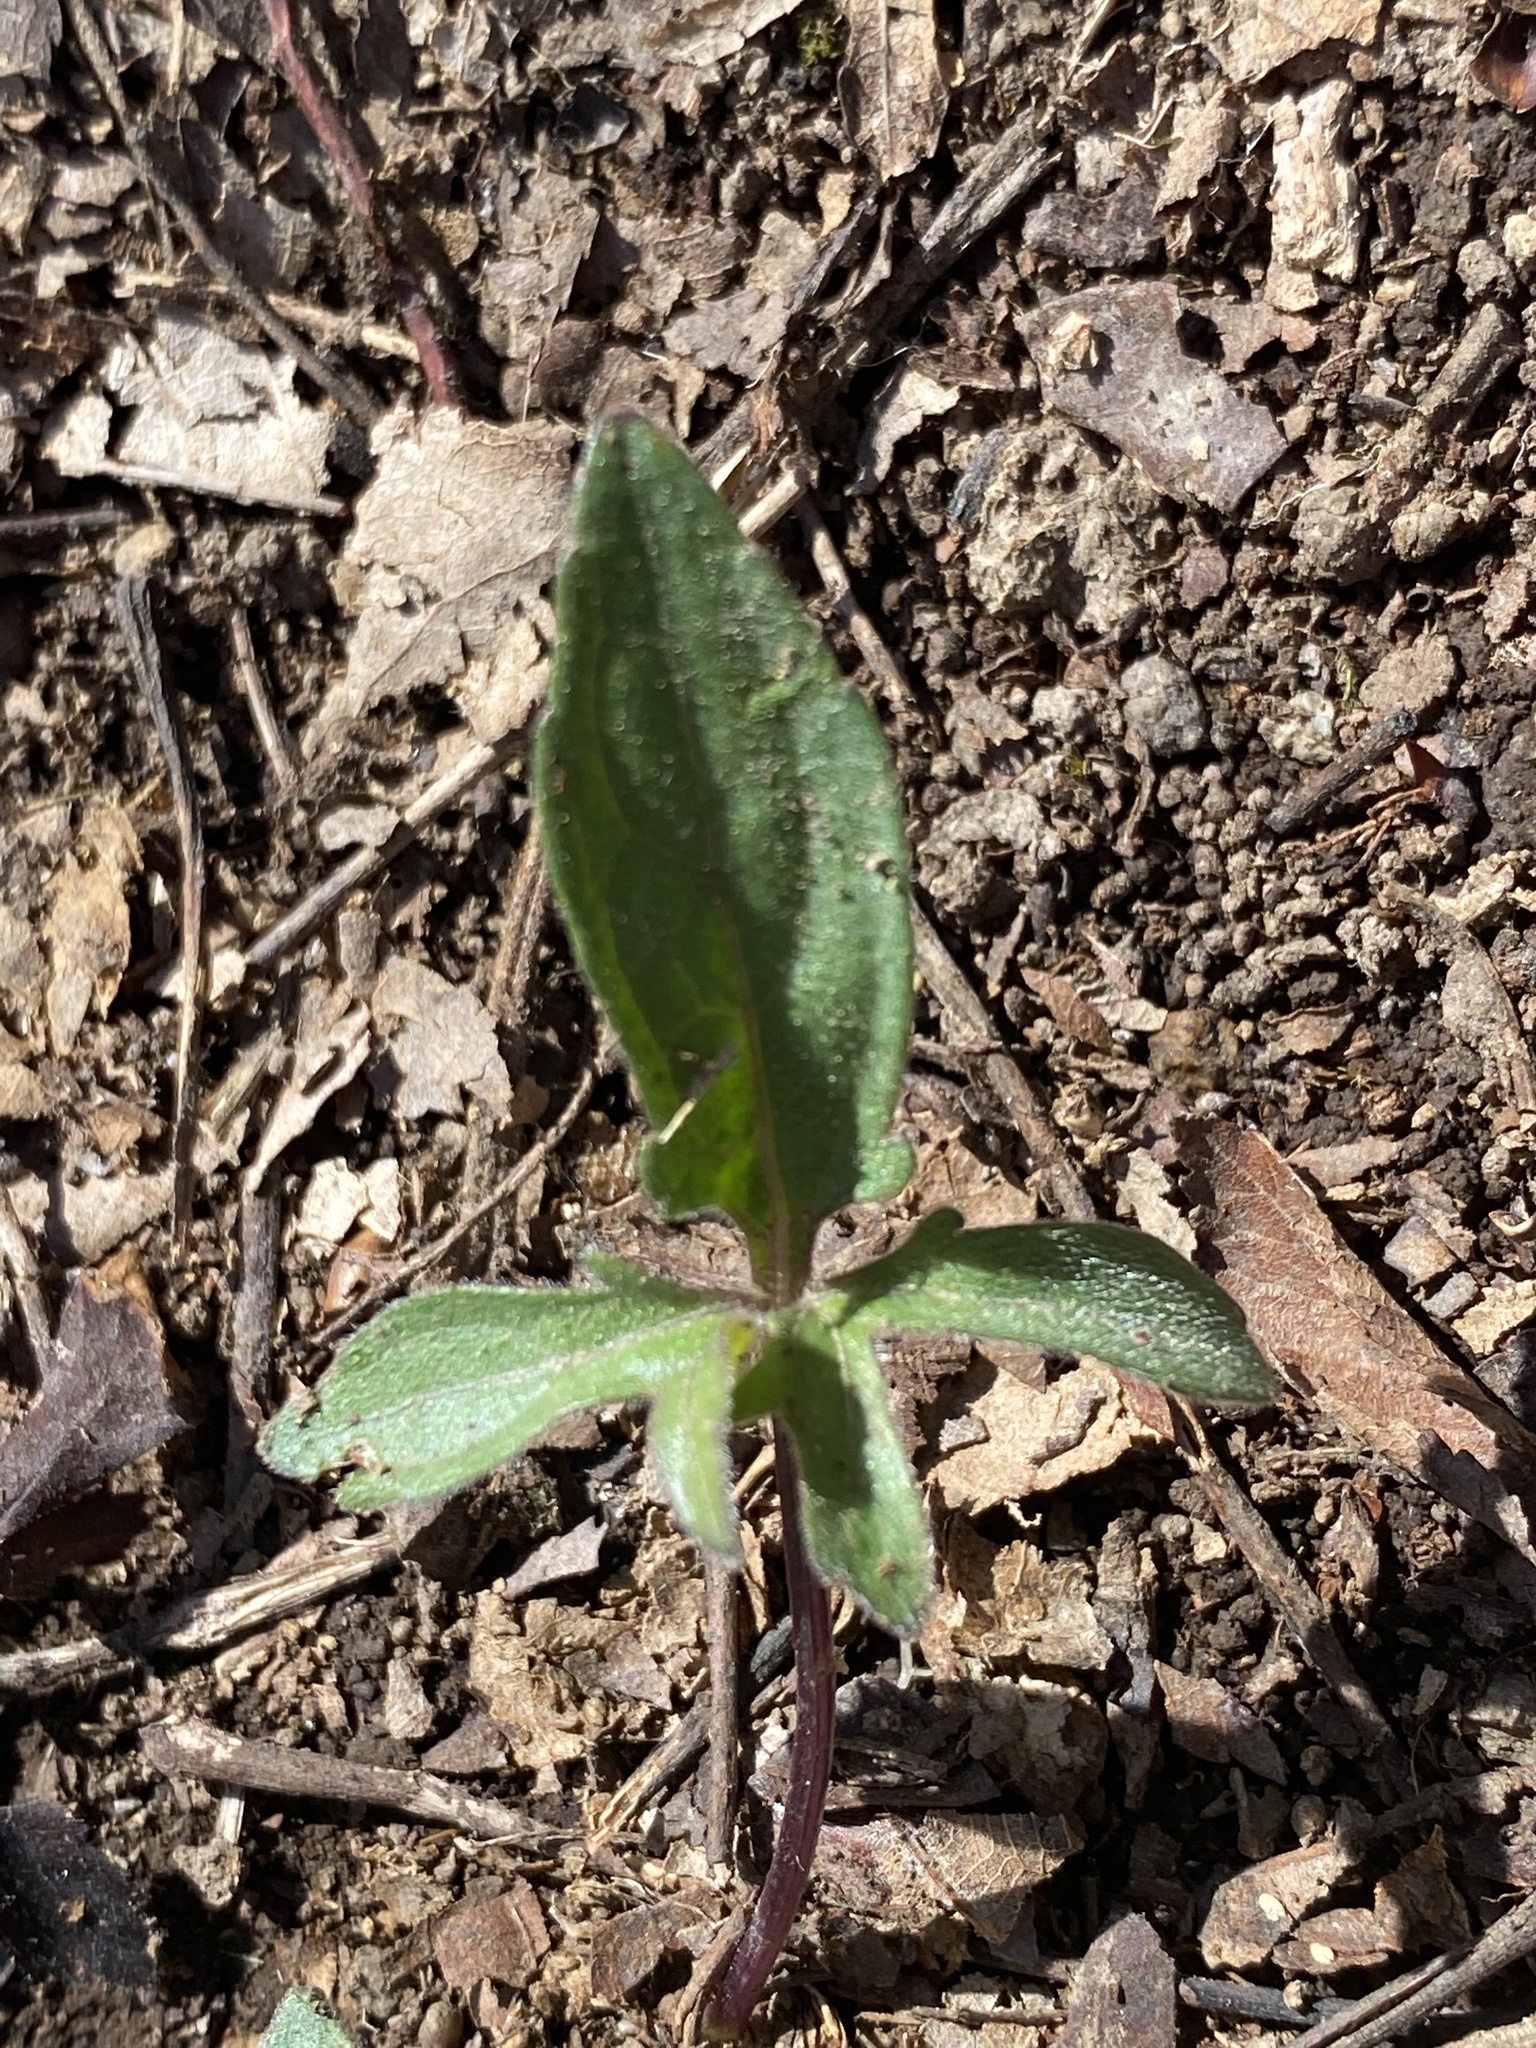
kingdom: Plantae
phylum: Tracheophyta
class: Magnoliopsida
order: Malpighiales
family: Violaceae
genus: Viola
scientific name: Viola palmata
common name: Early blue violet
